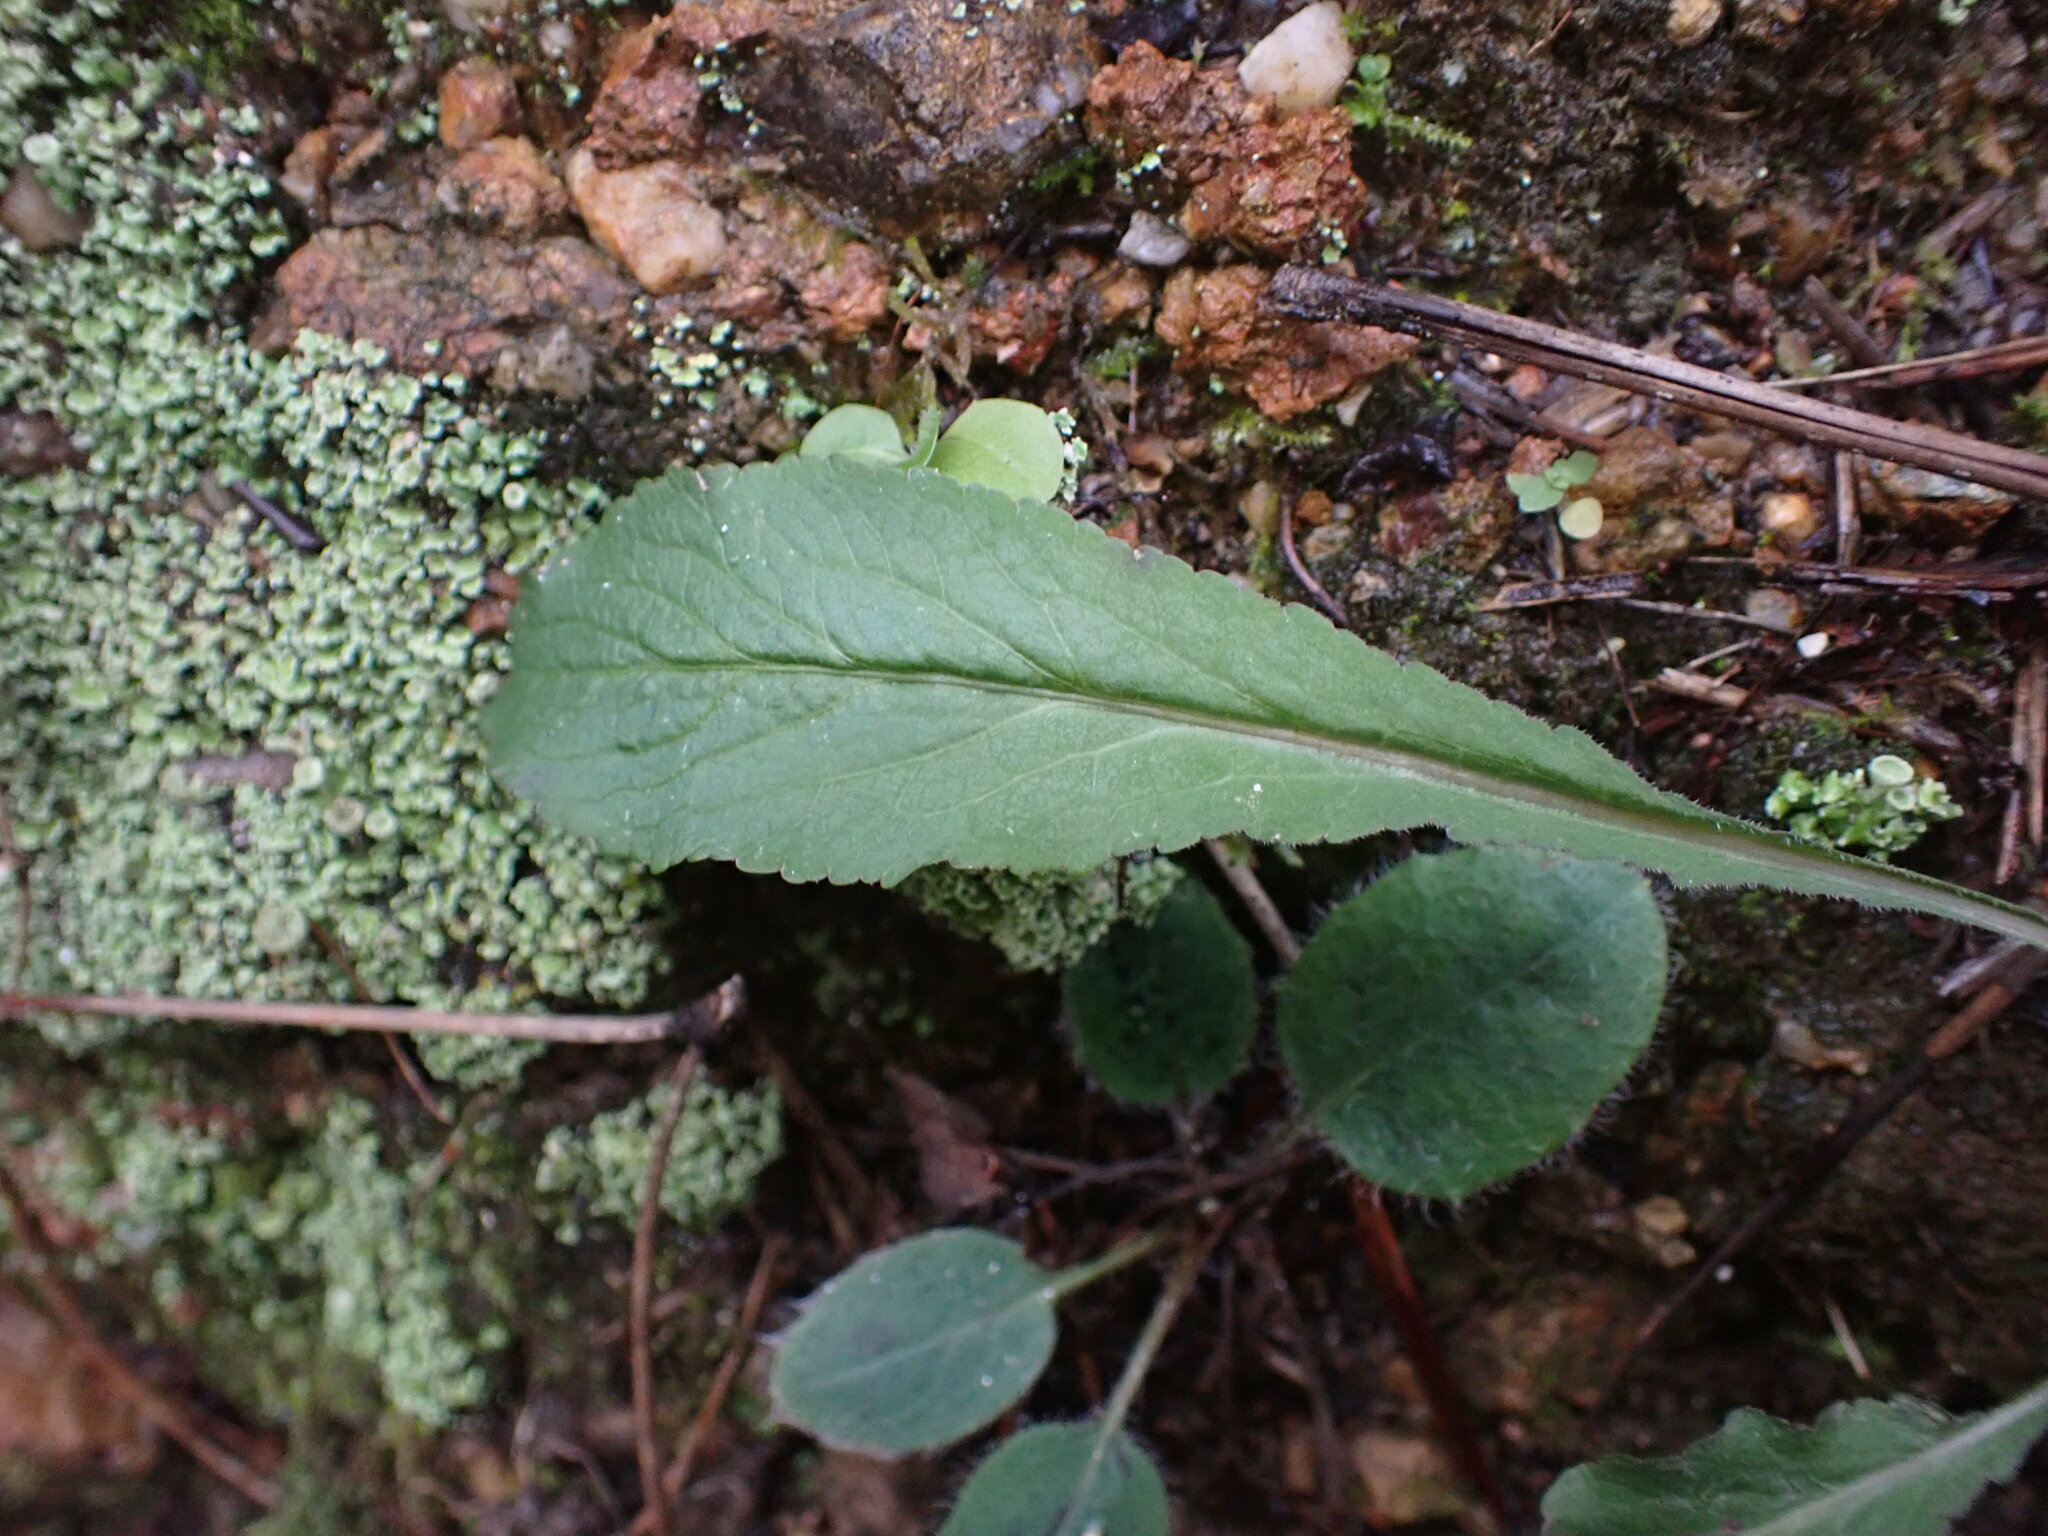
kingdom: Plantae
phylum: Tracheophyta
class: Magnoliopsida
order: Asterales
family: Campanulaceae
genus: Campanula
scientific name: Campanula rapunculus
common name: Rampion bellflower
